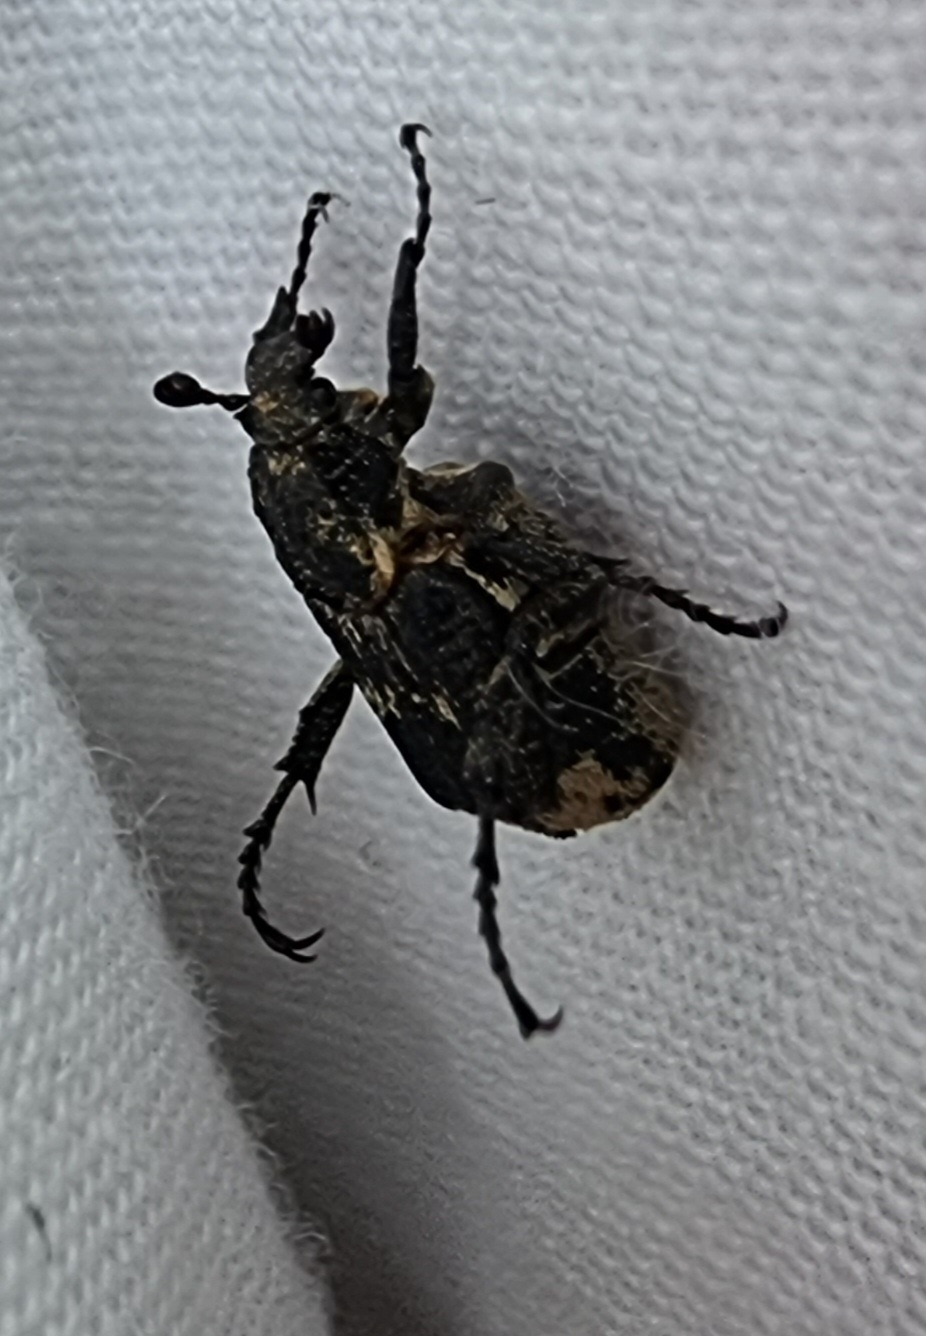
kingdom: Animalia
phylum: Arthropoda
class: Insecta
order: Coleoptera
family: Scarabaeidae
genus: Valgus
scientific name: Valgus hemipterus
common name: Bug flower chafer
